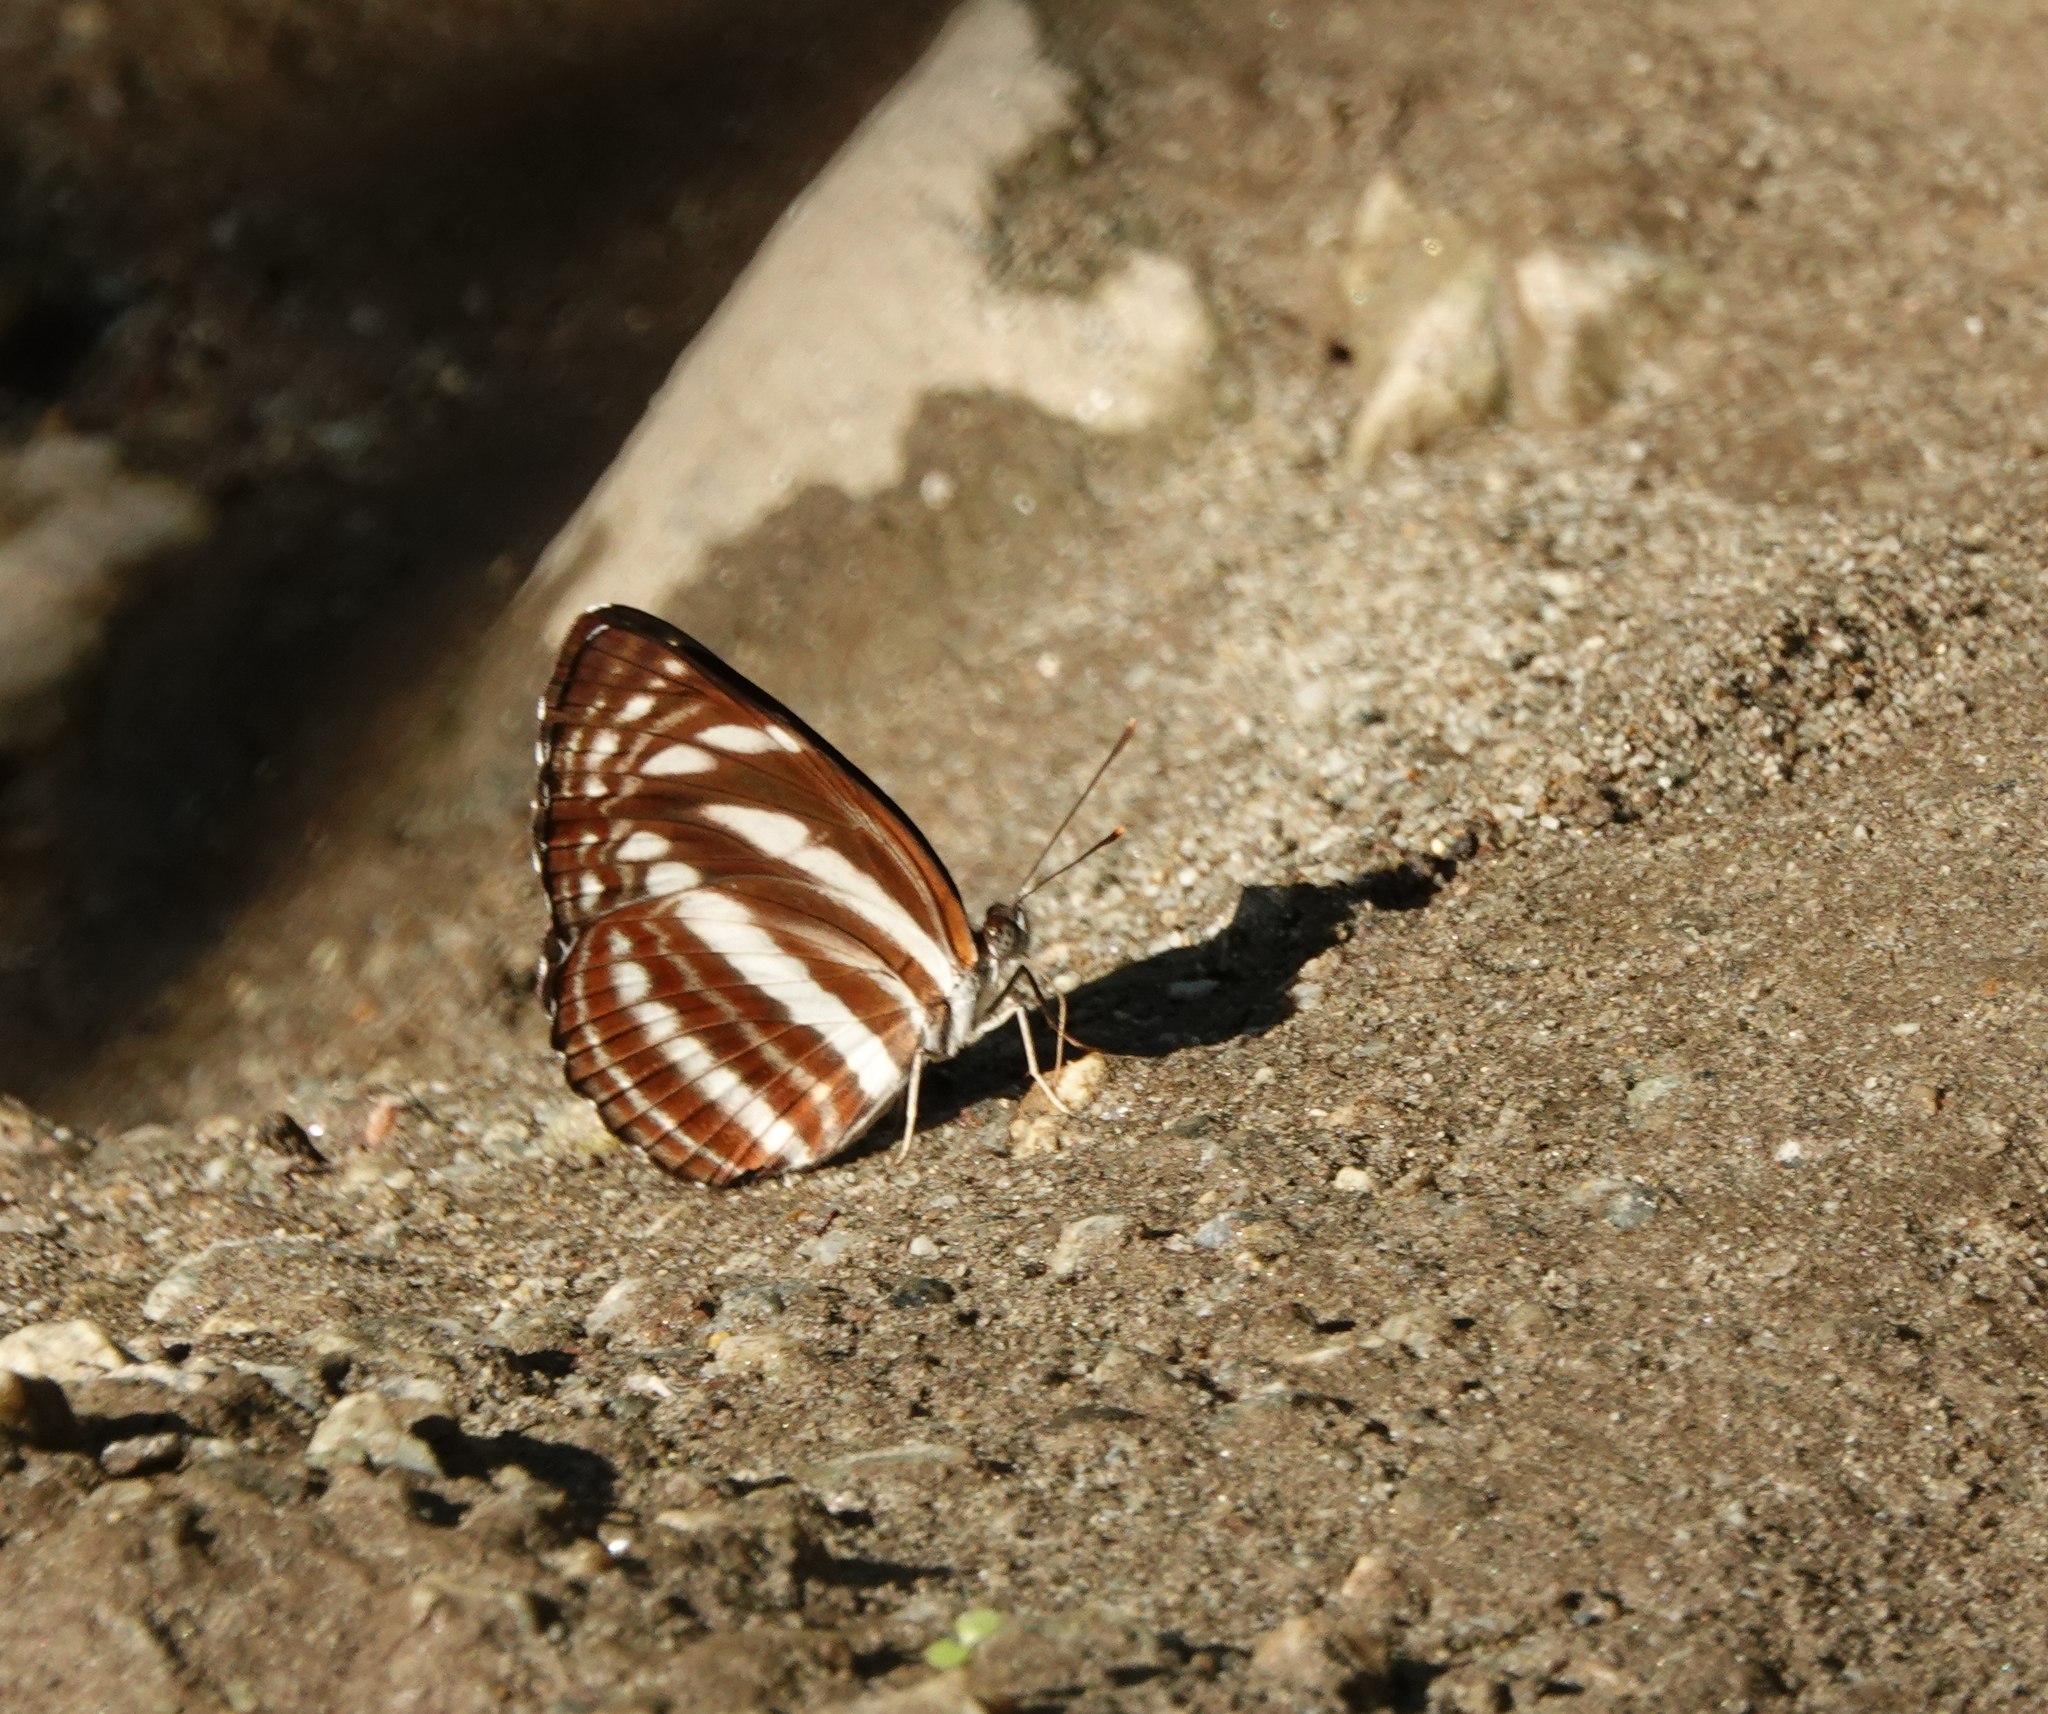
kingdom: Animalia
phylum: Arthropoda
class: Insecta
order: Lepidoptera
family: Nymphalidae
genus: Neptis
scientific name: Neptis clinia
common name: Southern sullied sailer
